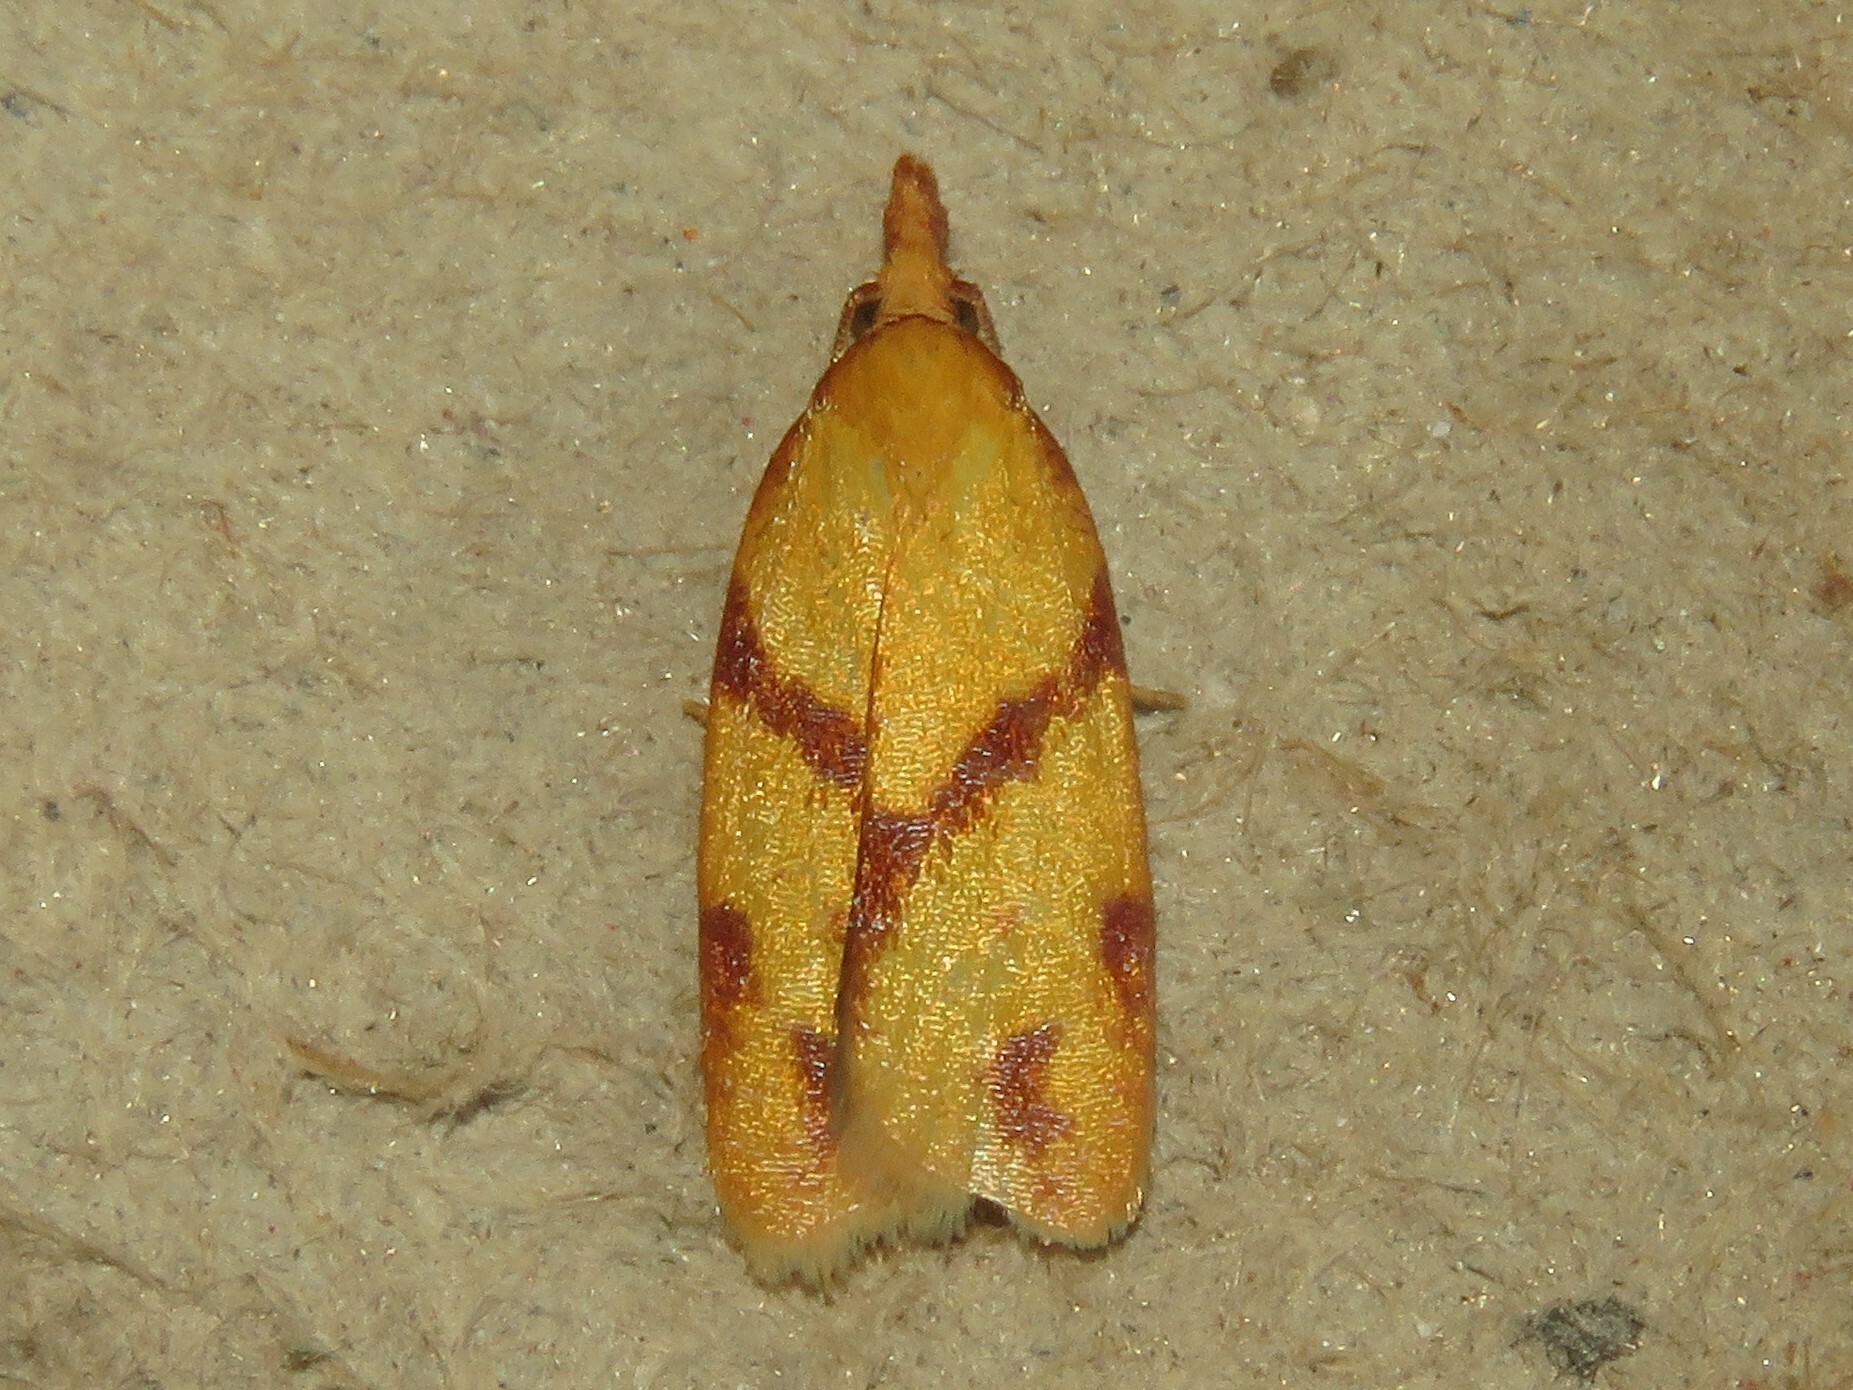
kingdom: Animalia
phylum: Arthropoda
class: Insecta
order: Lepidoptera
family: Tortricidae
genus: Sparganothis
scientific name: Sparganothis unifasciana
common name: One-lined sparganothis moth
